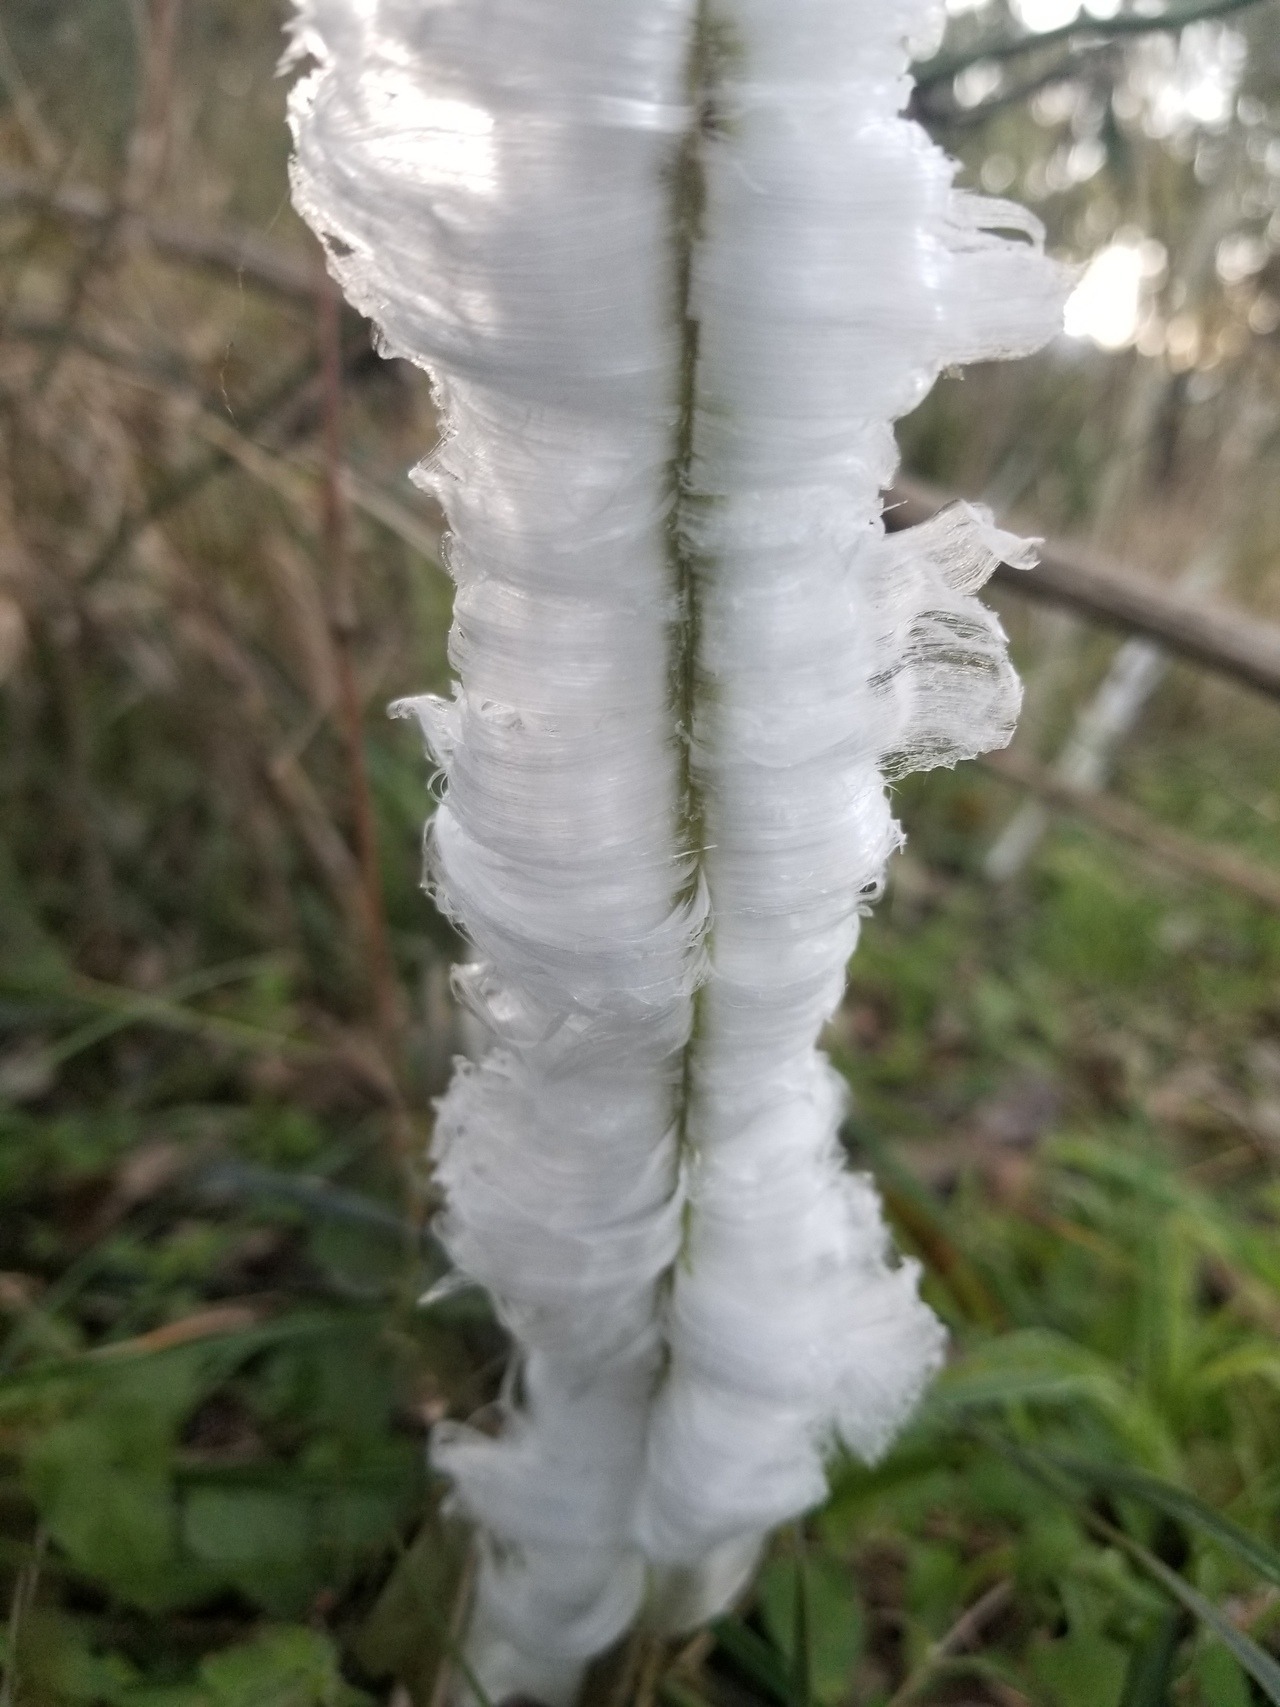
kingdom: Plantae
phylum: Tracheophyta
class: Magnoliopsida
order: Asterales
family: Asteraceae
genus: Verbesina
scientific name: Verbesina virginica
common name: Frostweed
